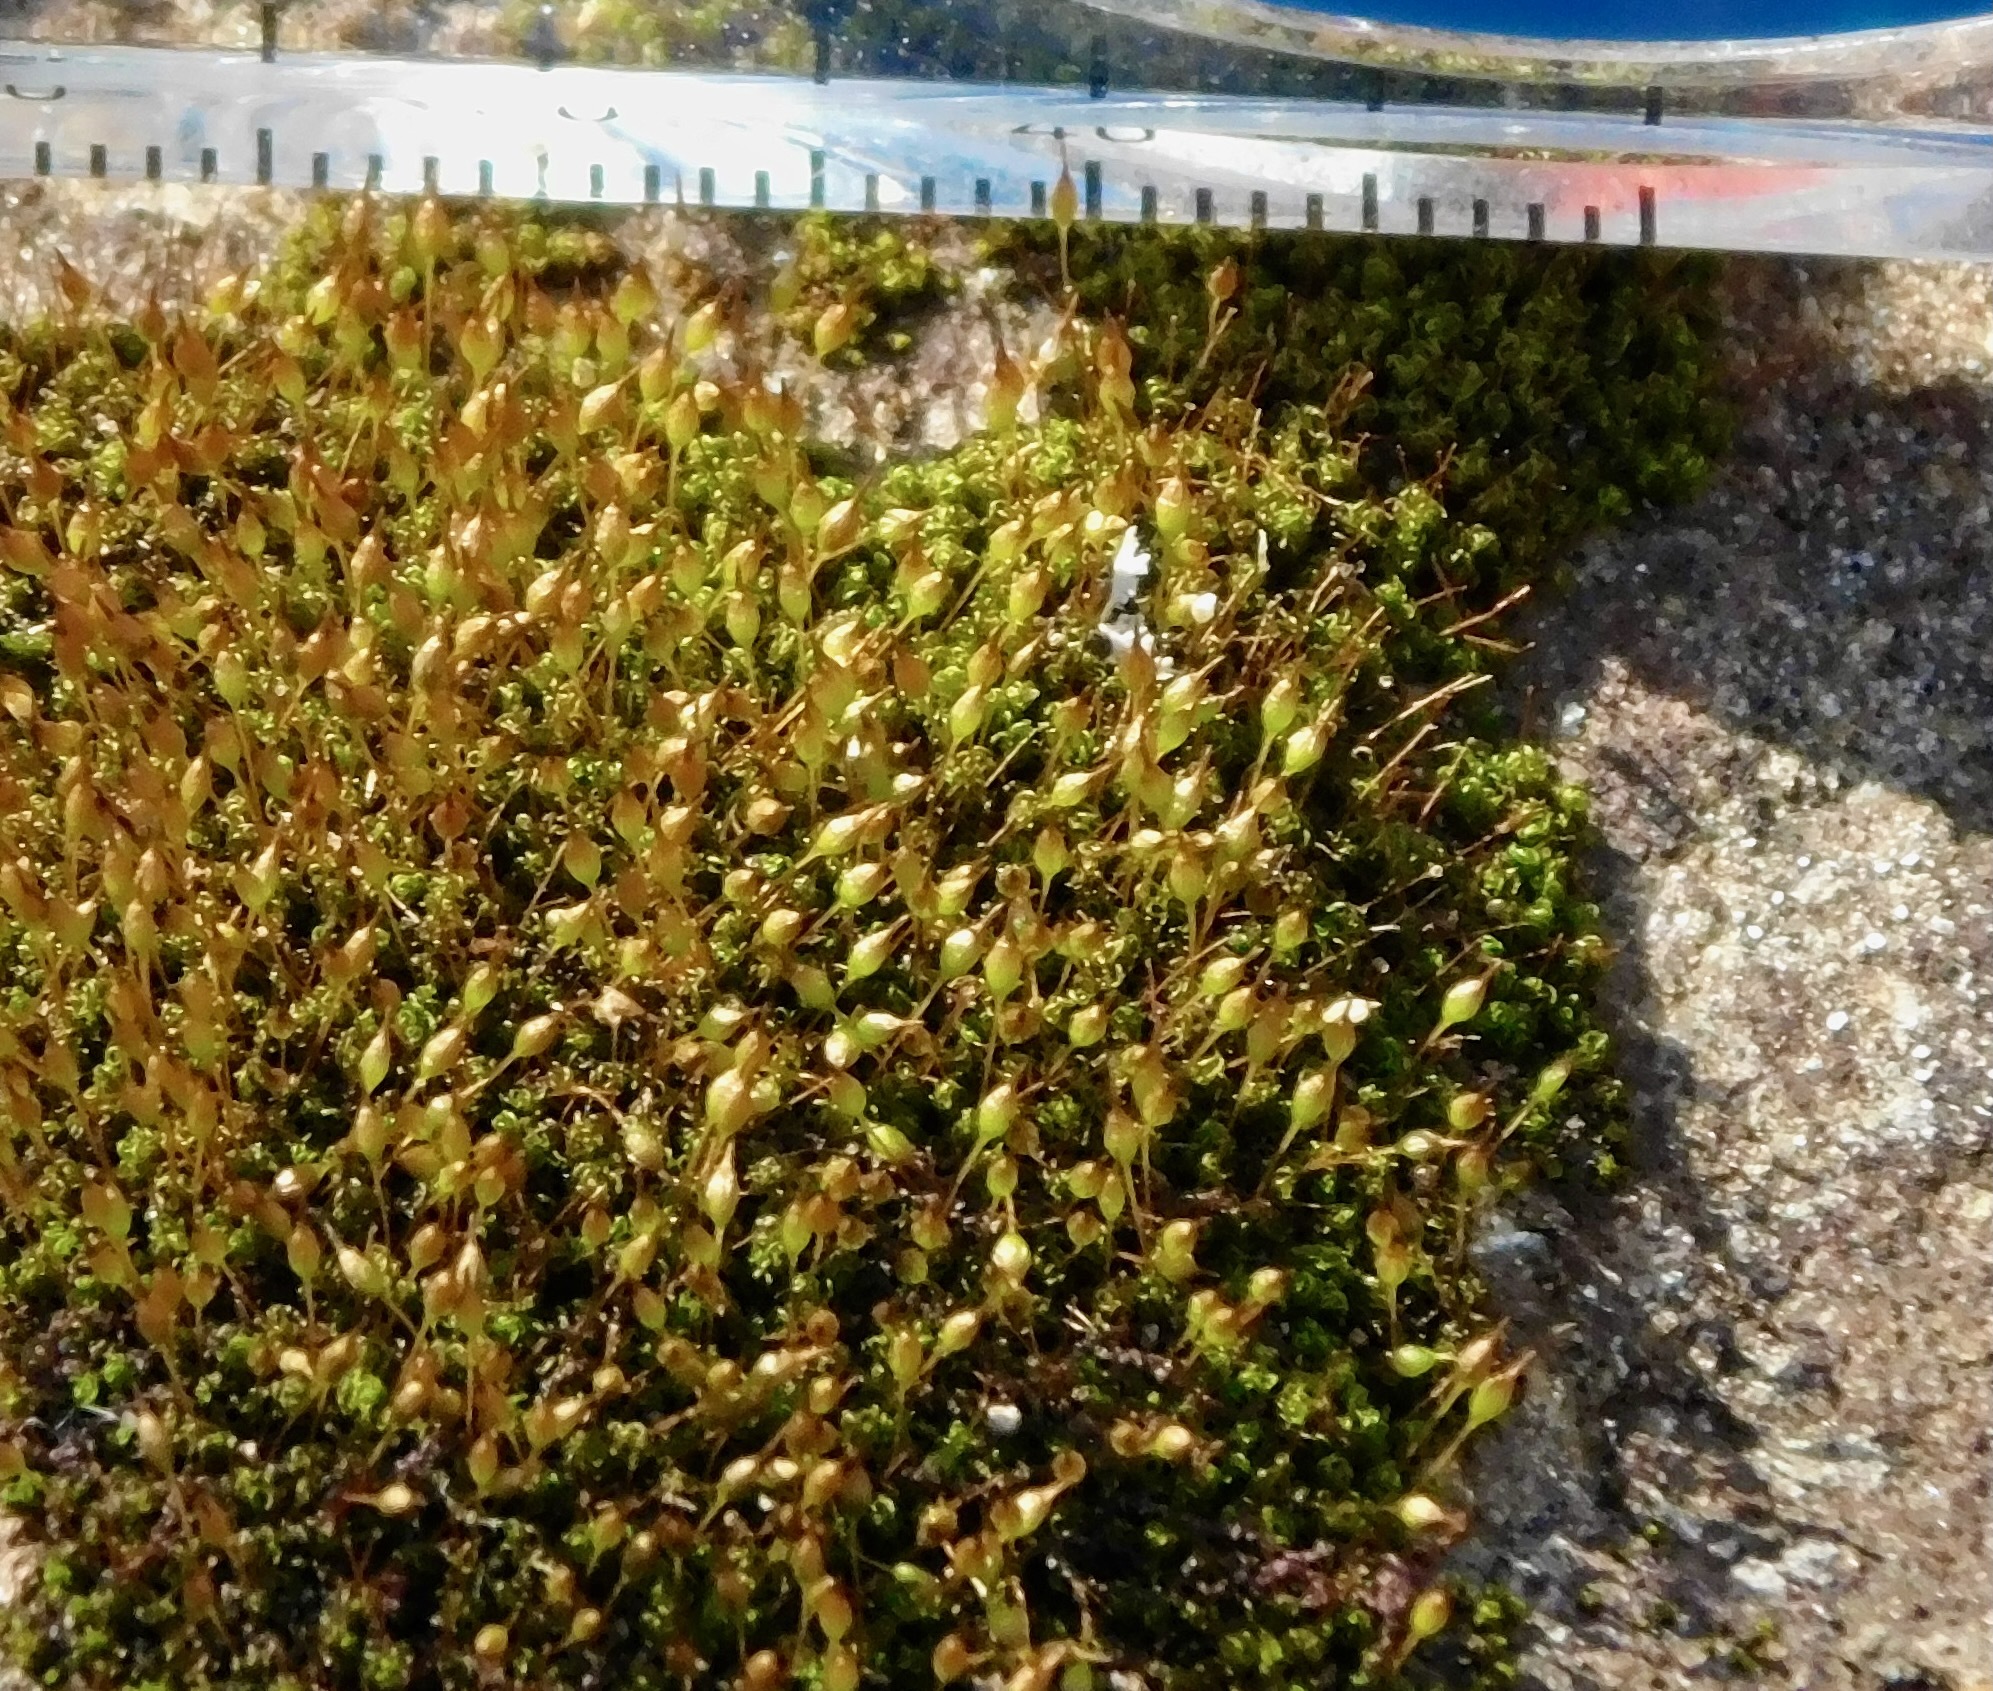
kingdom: Plantae
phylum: Bryophyta
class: Bryopsida
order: Grimmiales
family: Ptychomitriaceae
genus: Ptychomitrium
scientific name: Ptychomitrium incurvum
